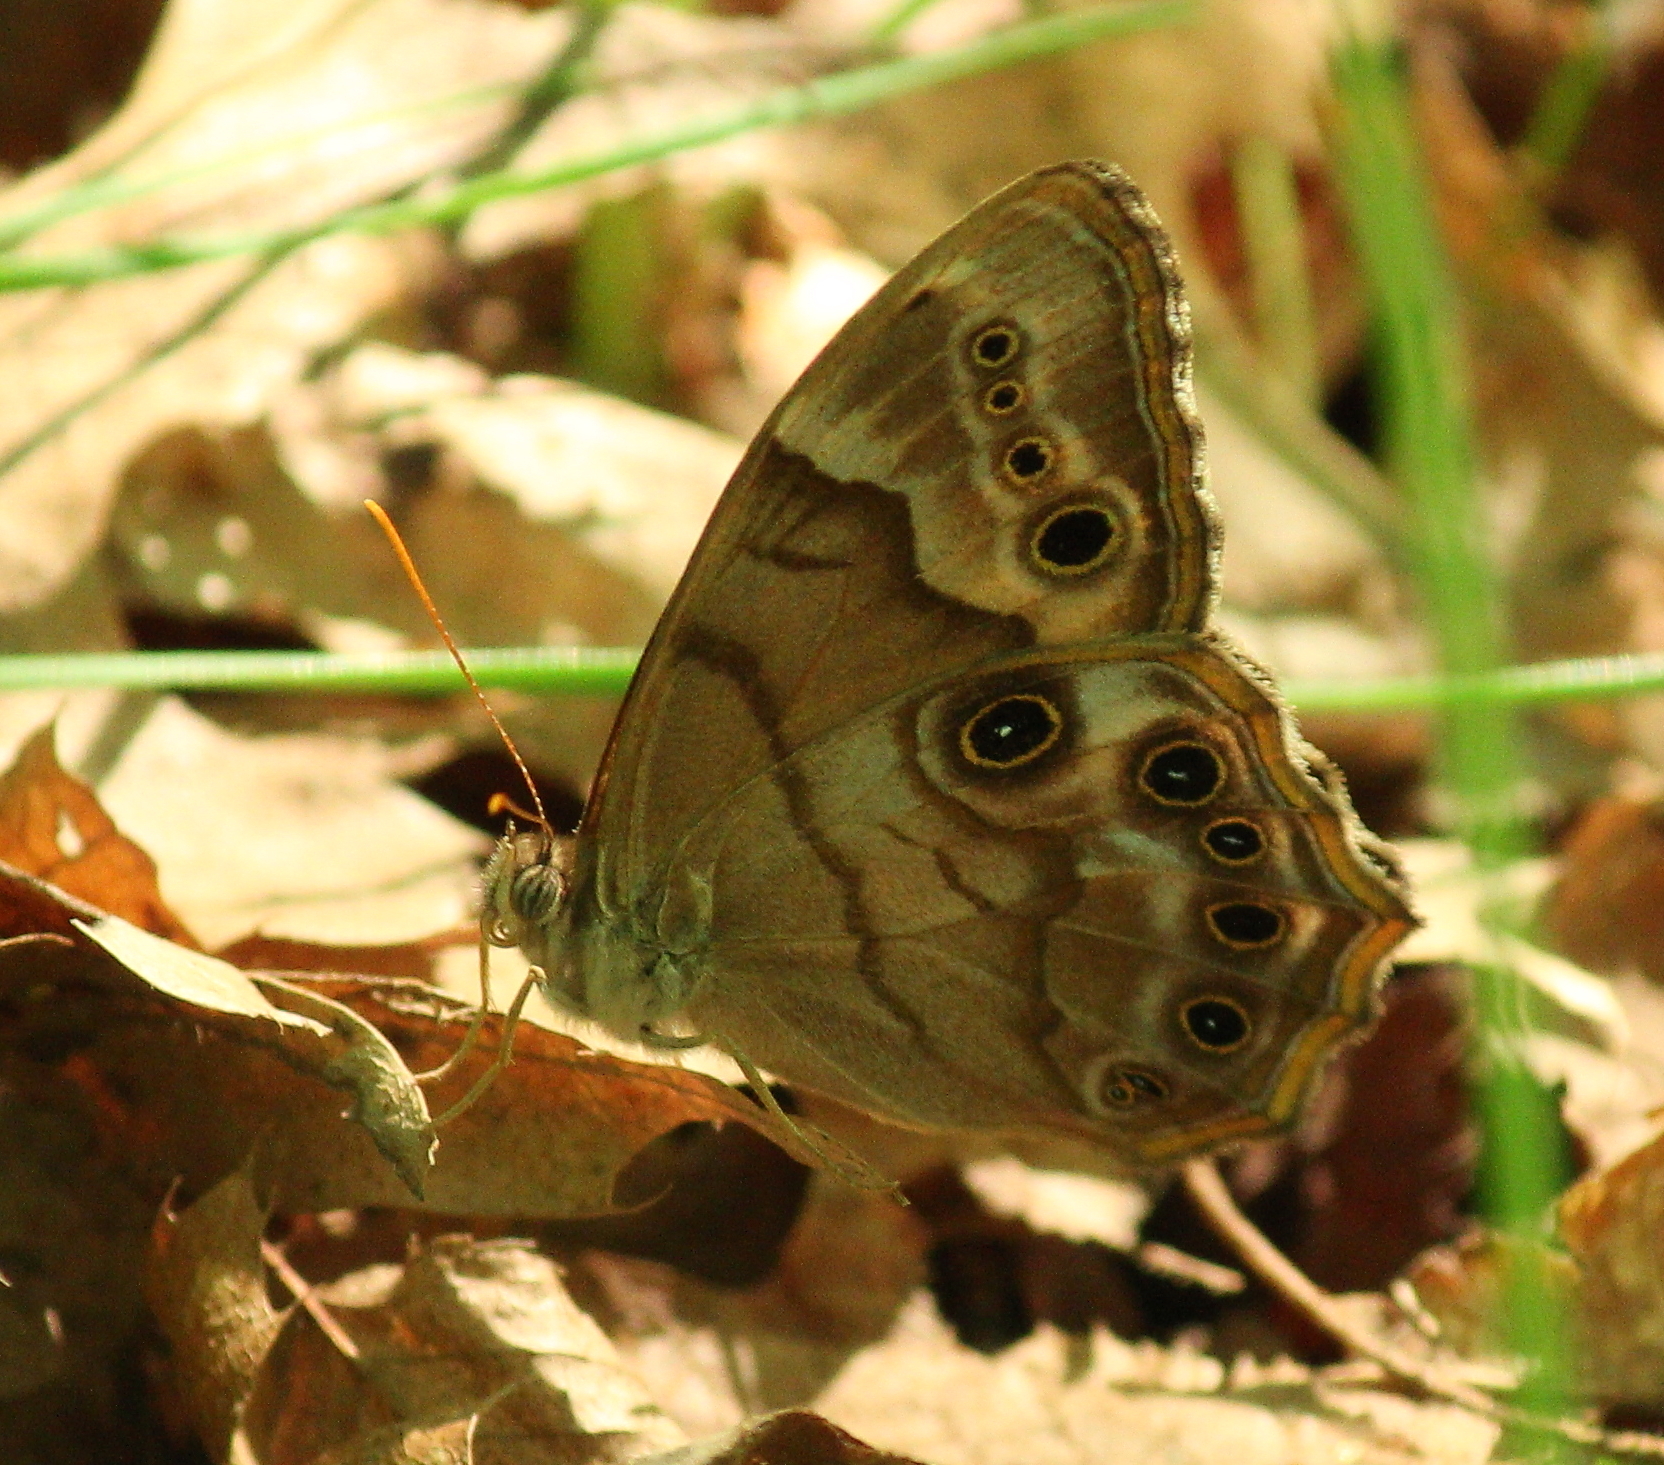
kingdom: Animalia
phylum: Arthropoda
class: Insecta
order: Lepidoptera
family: Nymphalidae
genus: Enodia
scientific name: Enodia portlandia
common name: Southern pearly-eye
